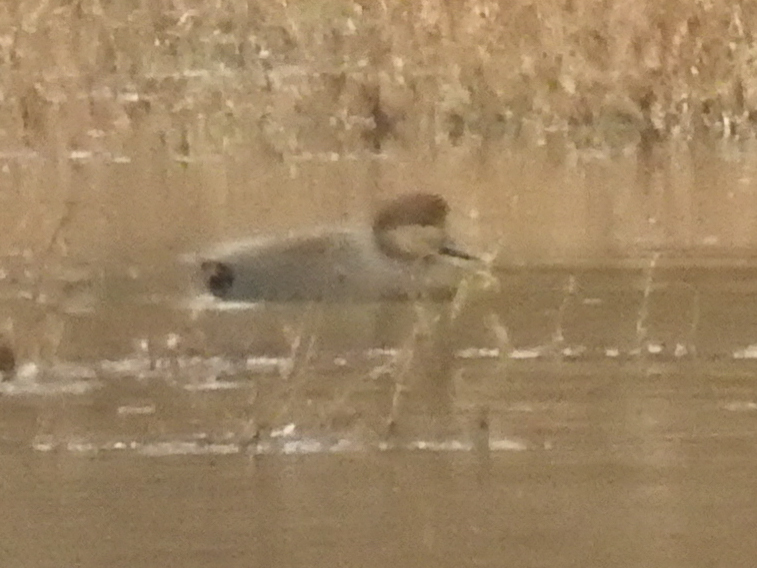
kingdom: Animalia
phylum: Chordata
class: Aves
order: Anseriformes
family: Anatidae
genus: Mareca
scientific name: Mareca strepera
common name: Gadwall
